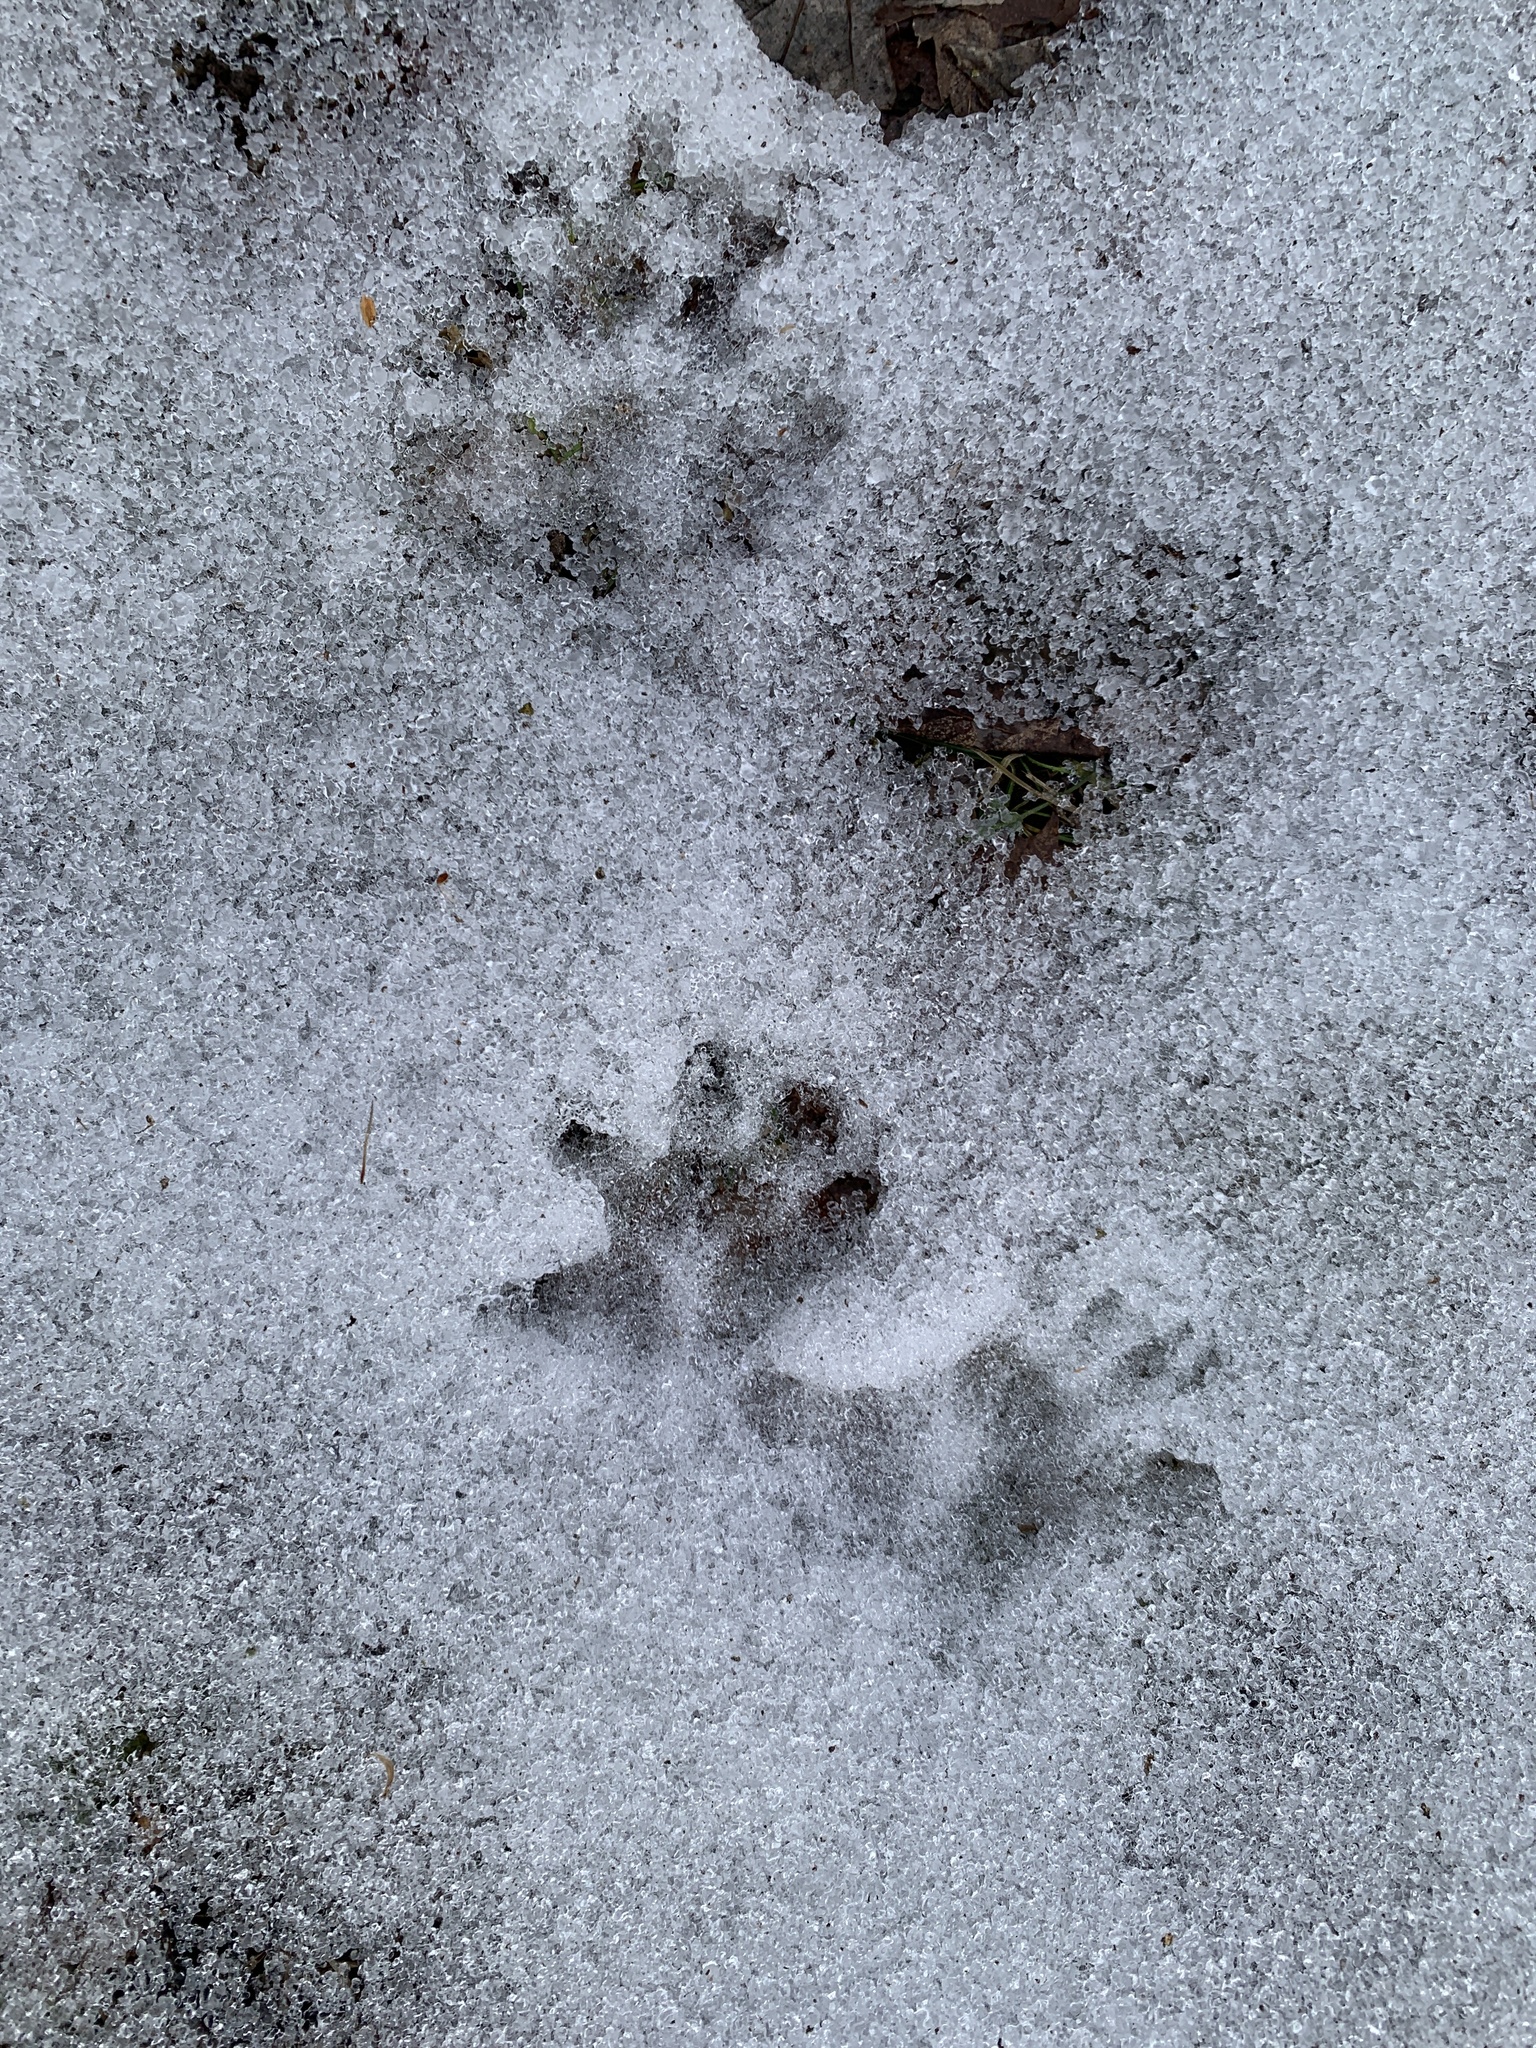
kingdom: Animalia
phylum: Chordata
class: Mammalia
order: Didelphimorphia
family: Didelphidae
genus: Didelphis
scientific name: Didelphis virginiana
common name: Virginia opossum
